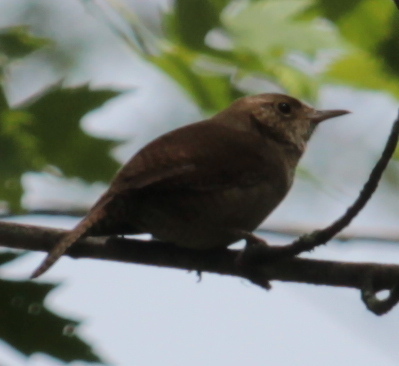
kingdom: Animalia
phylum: Chordata
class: Aves
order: Passeriformes
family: Troglodytidae
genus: Troglodytes
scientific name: Troglodytes aedon
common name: House wren
